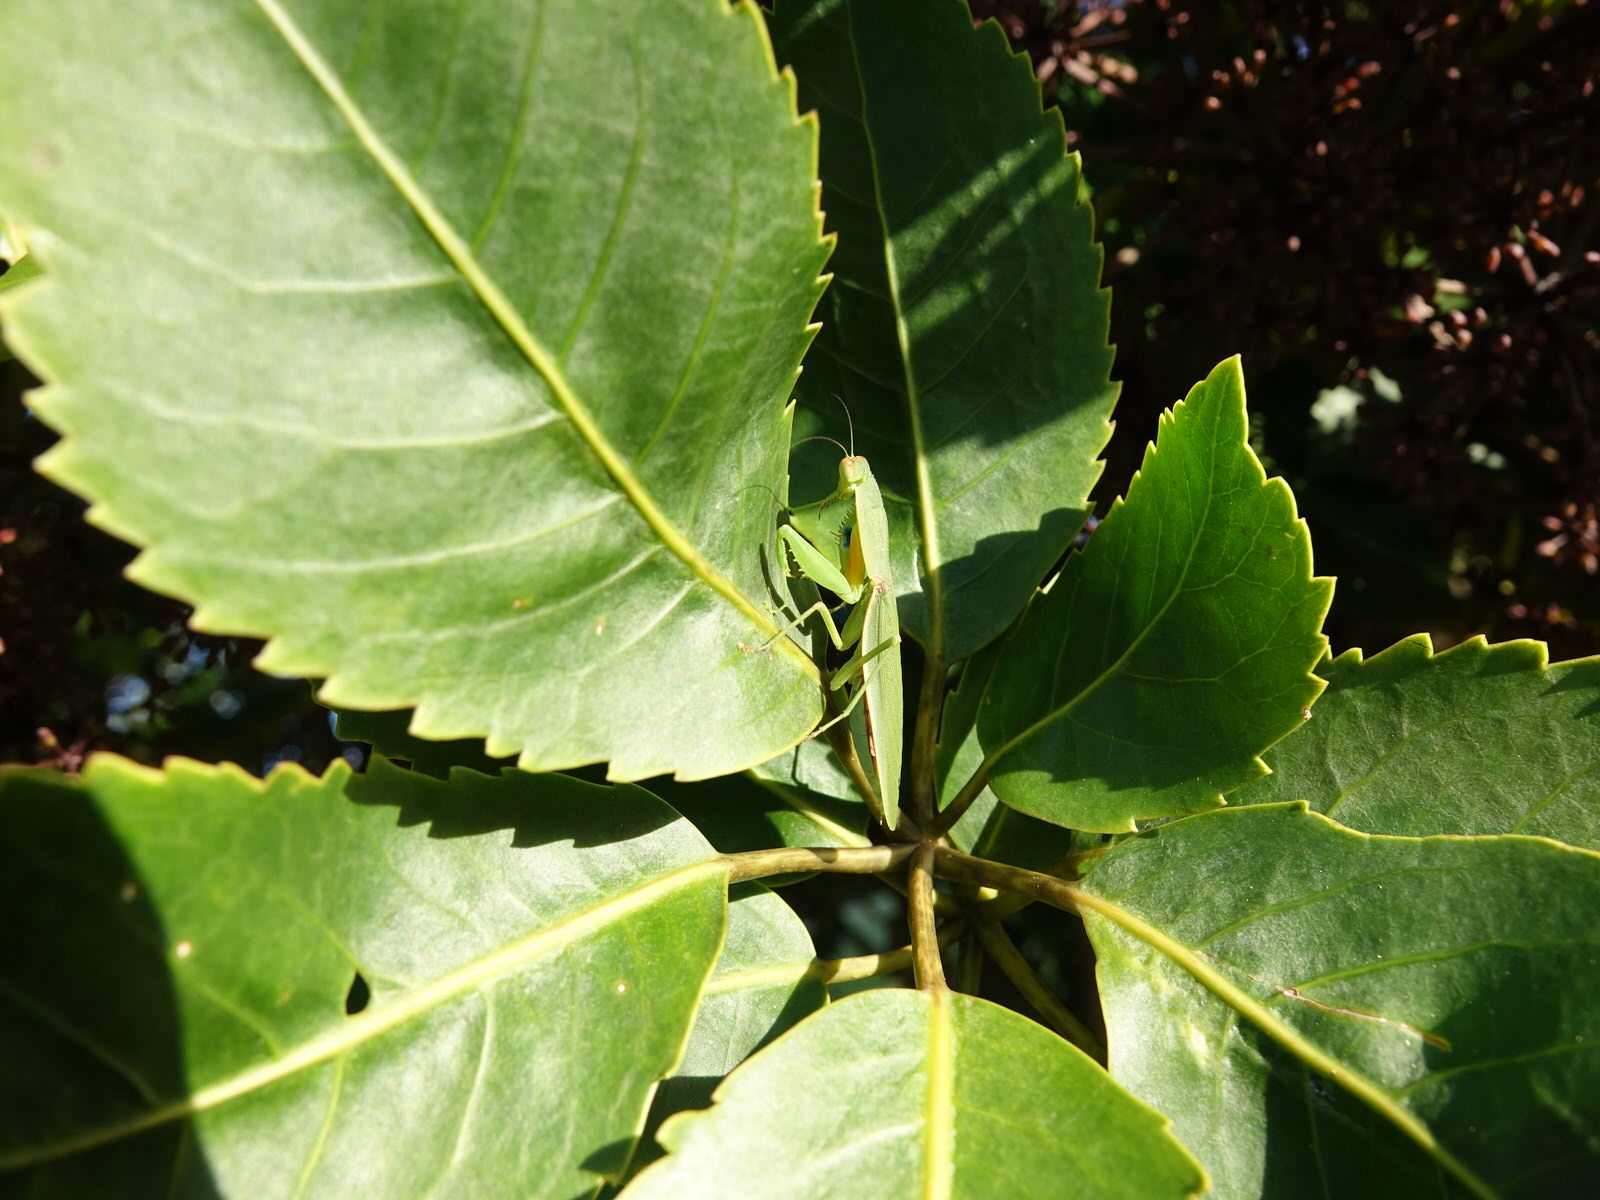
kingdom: Animalia
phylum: Arthropoda
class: Insecta
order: Mantodea
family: Mantidae
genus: Orthodera
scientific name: Orthodera novaezealandiae
